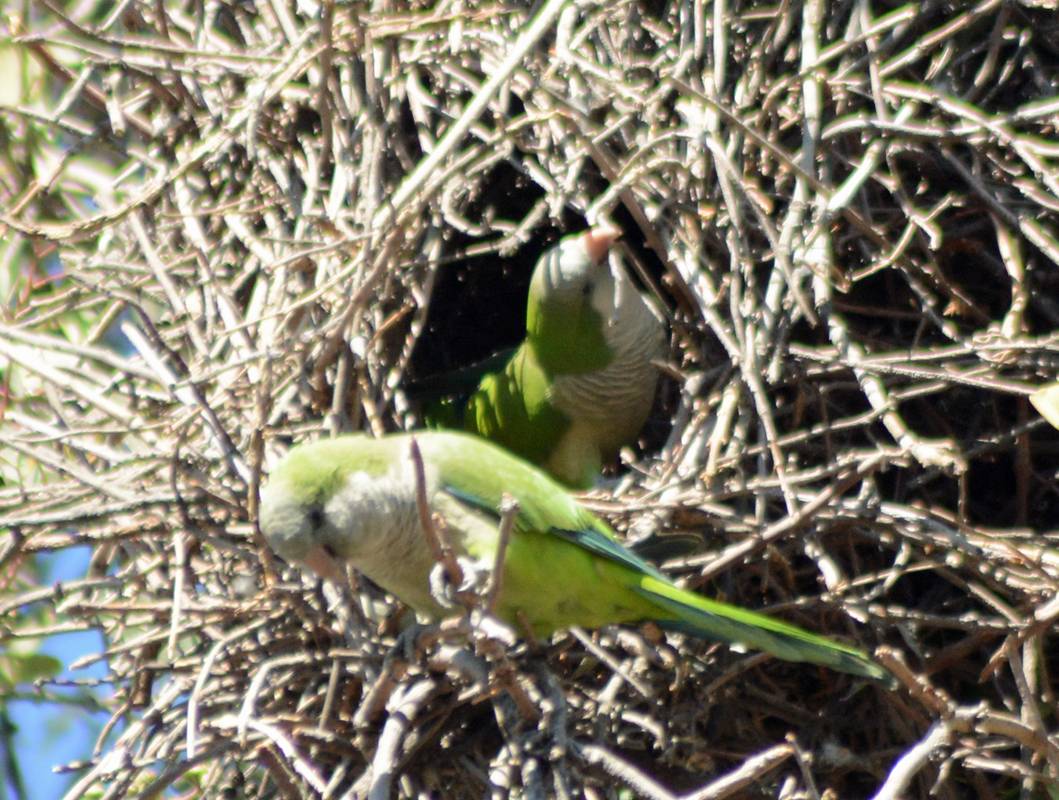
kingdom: Animalia
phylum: Chordata
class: Aves
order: Psittaciformes
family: Psittacidae
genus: Myiopsitta
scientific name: Myiopsitta monachus
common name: Monk parakeet
